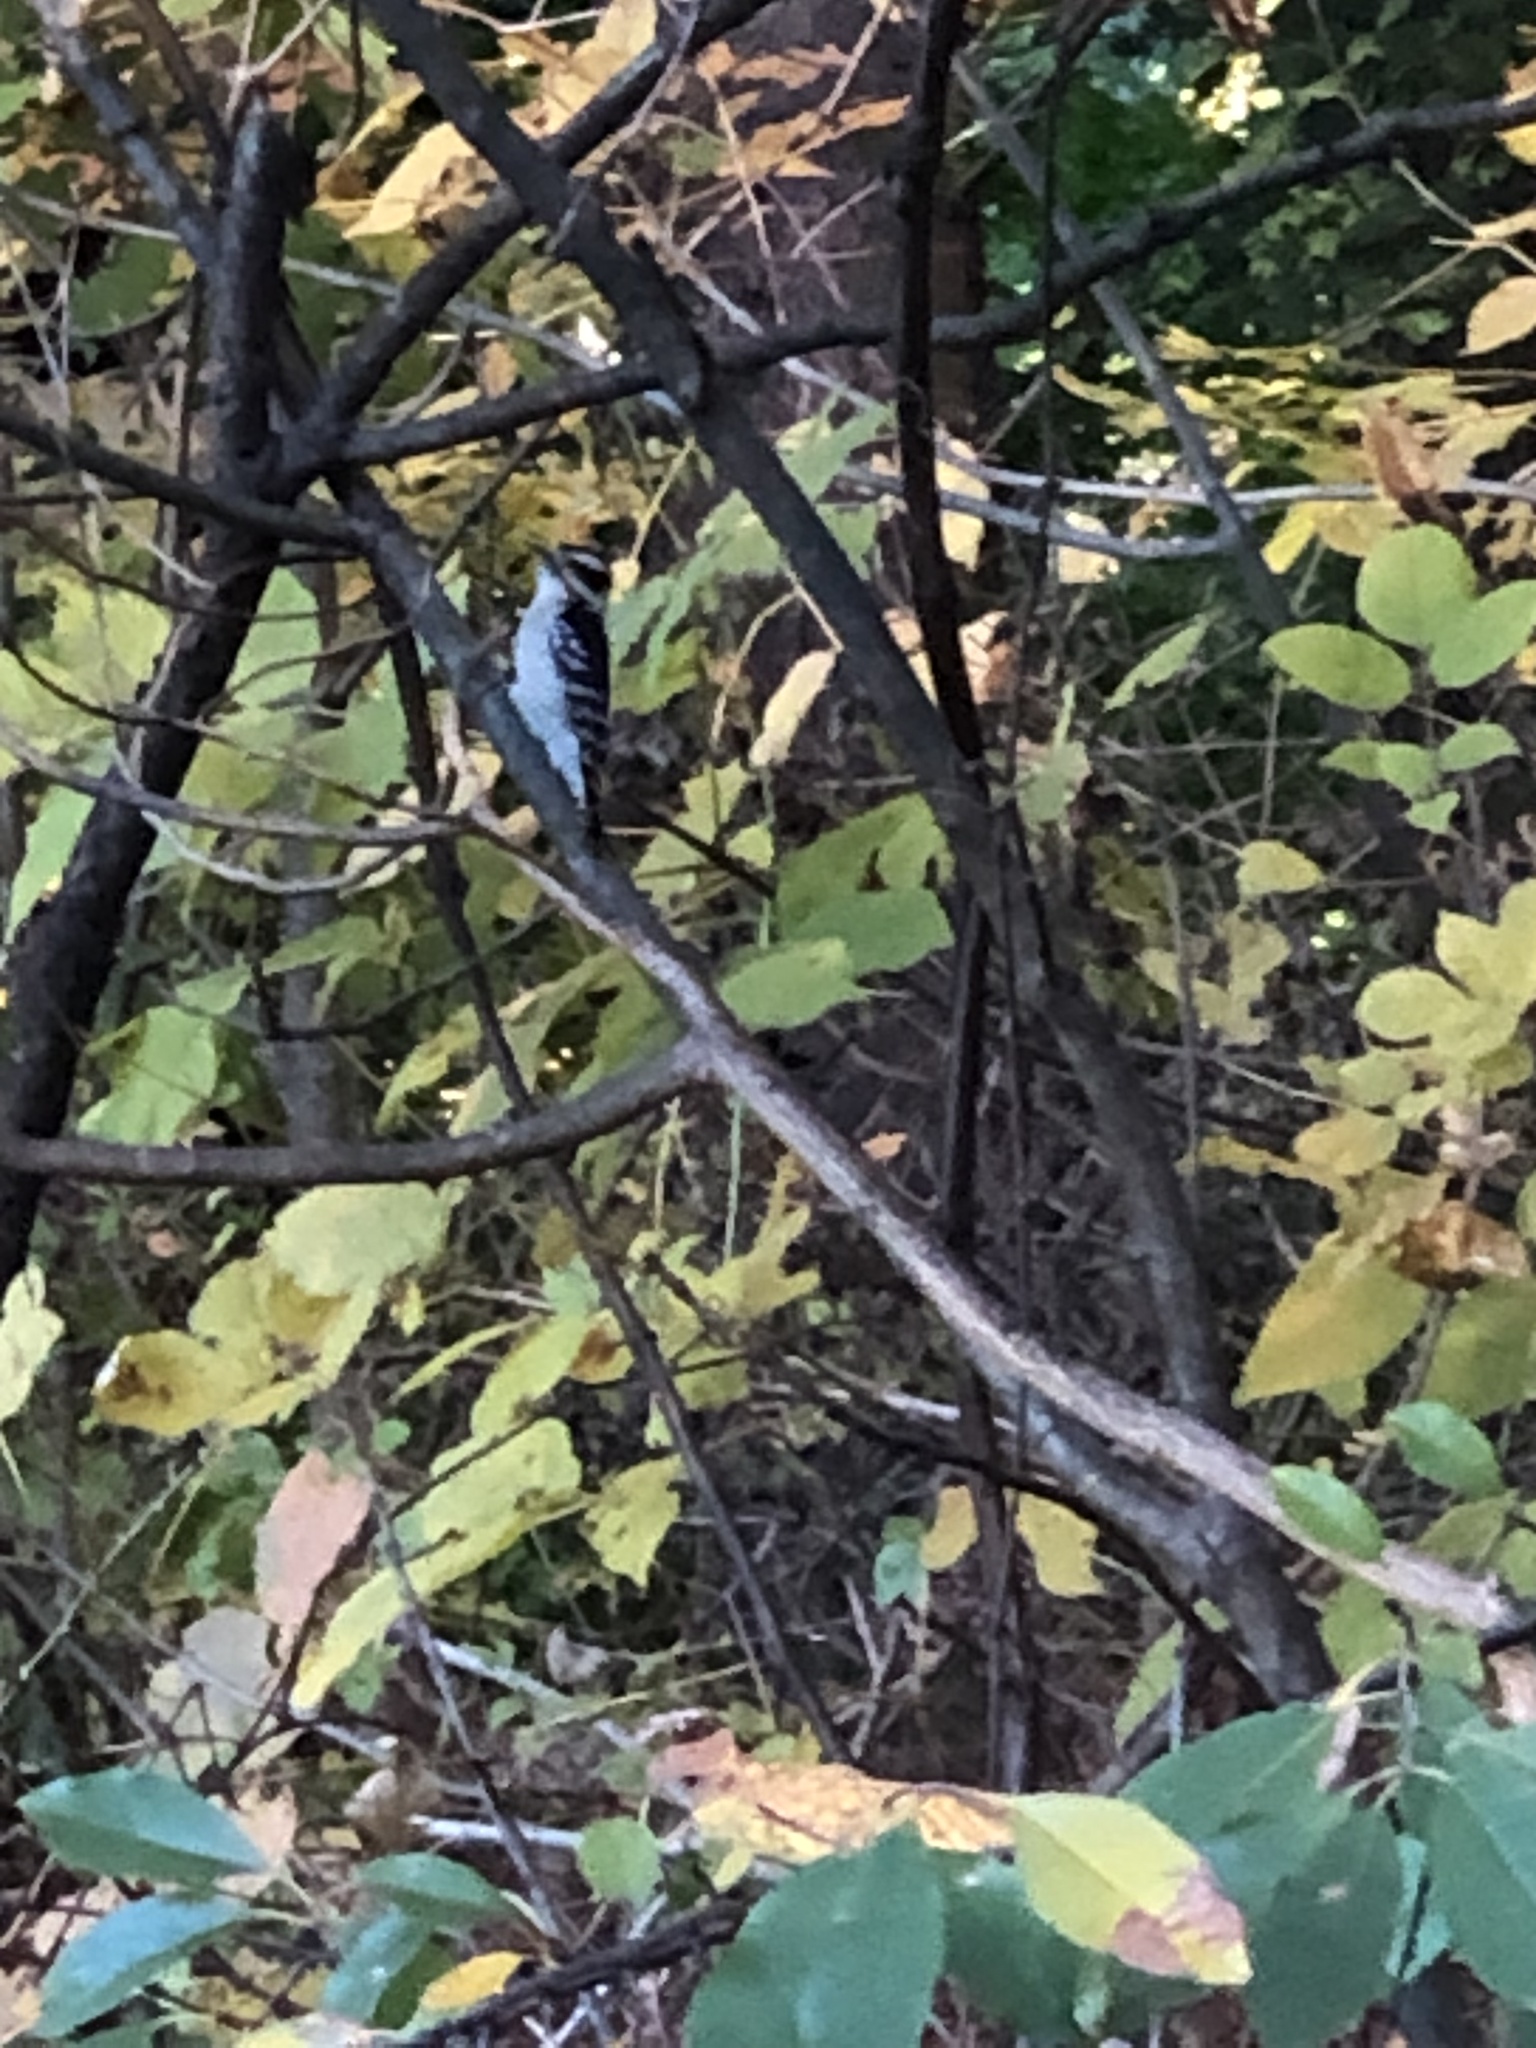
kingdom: Animalia
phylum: Chordata
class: Aves
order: Piciformes
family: Picidae
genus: Dryobates
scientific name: Dryobates pubescens
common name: Downy woodpecker
